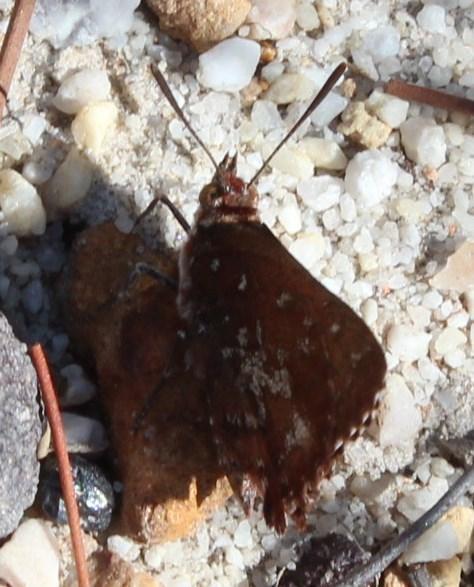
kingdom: Animalia
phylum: Arthropoda
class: Insecta
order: Lepidoptera
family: Lycaenidae
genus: Aloeides
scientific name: Aloeides thyra
